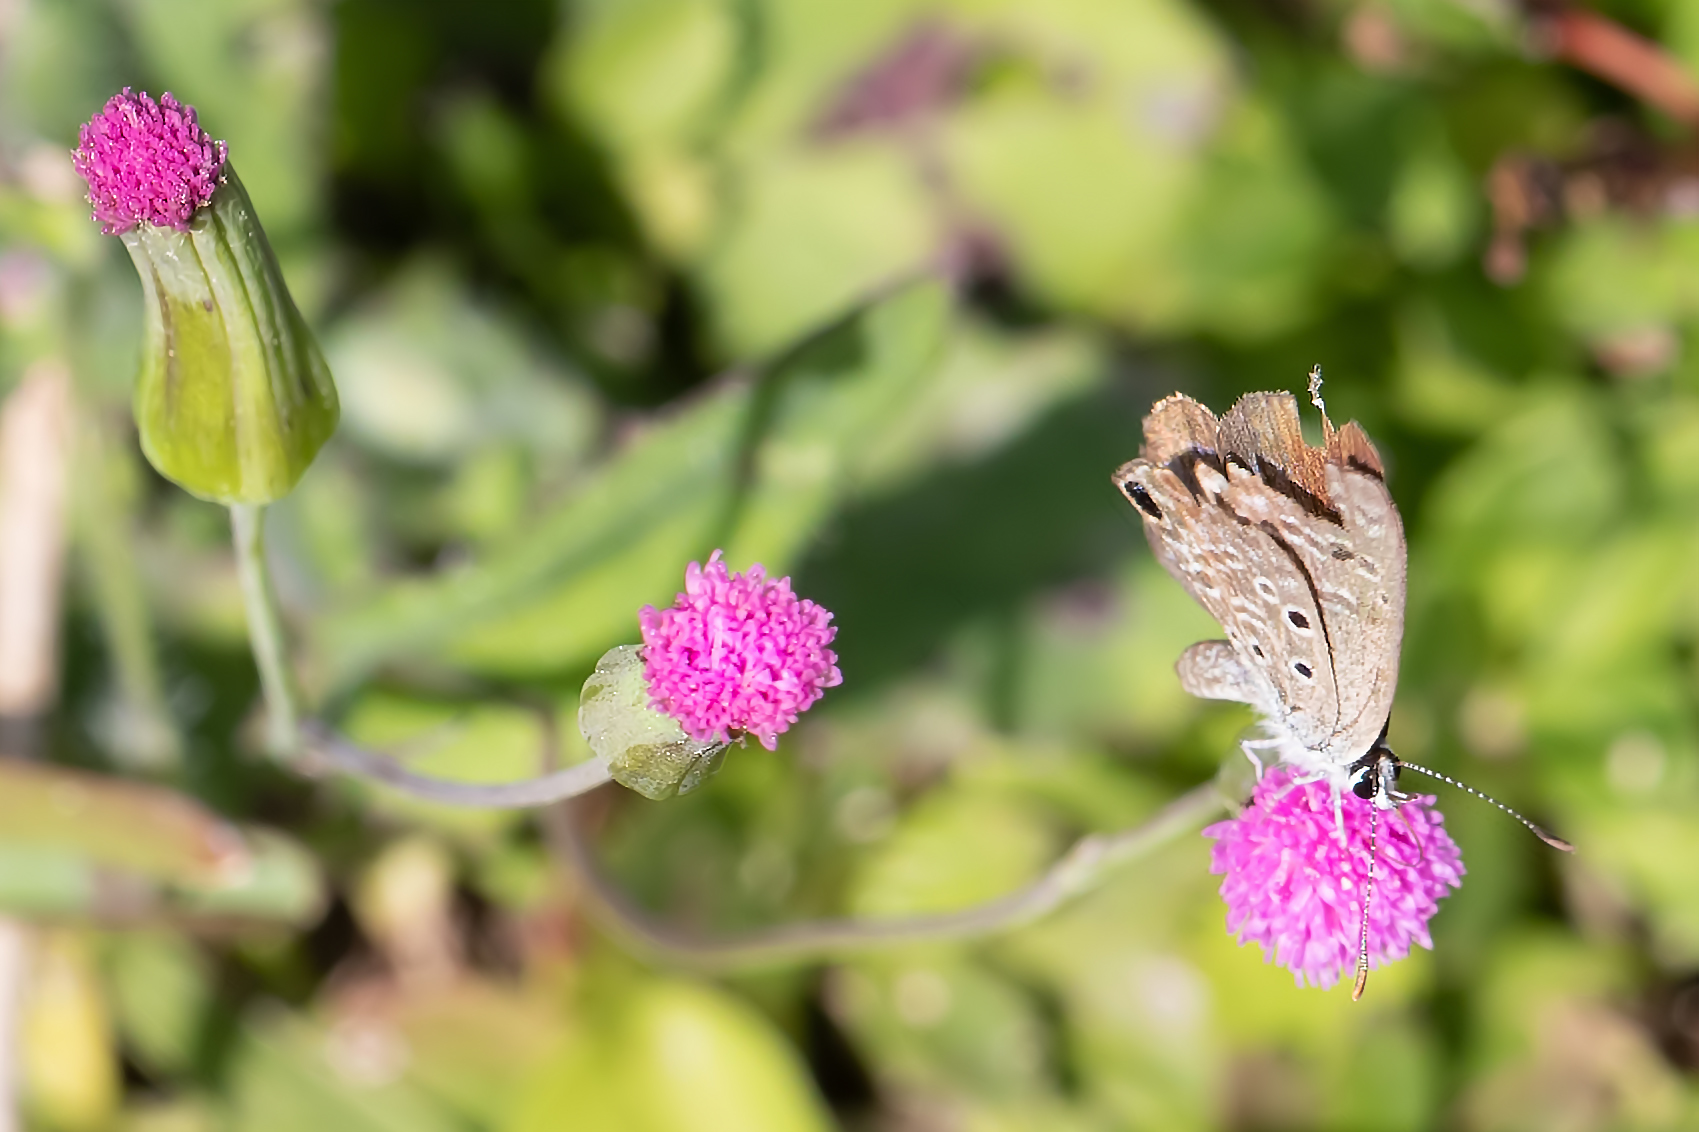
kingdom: Animalia
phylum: Arthropoda
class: Insecta
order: Lepidoptera
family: Lycaenidae
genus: Hemiargus
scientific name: Hemiargus ceraunus
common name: Ceraunus blue
